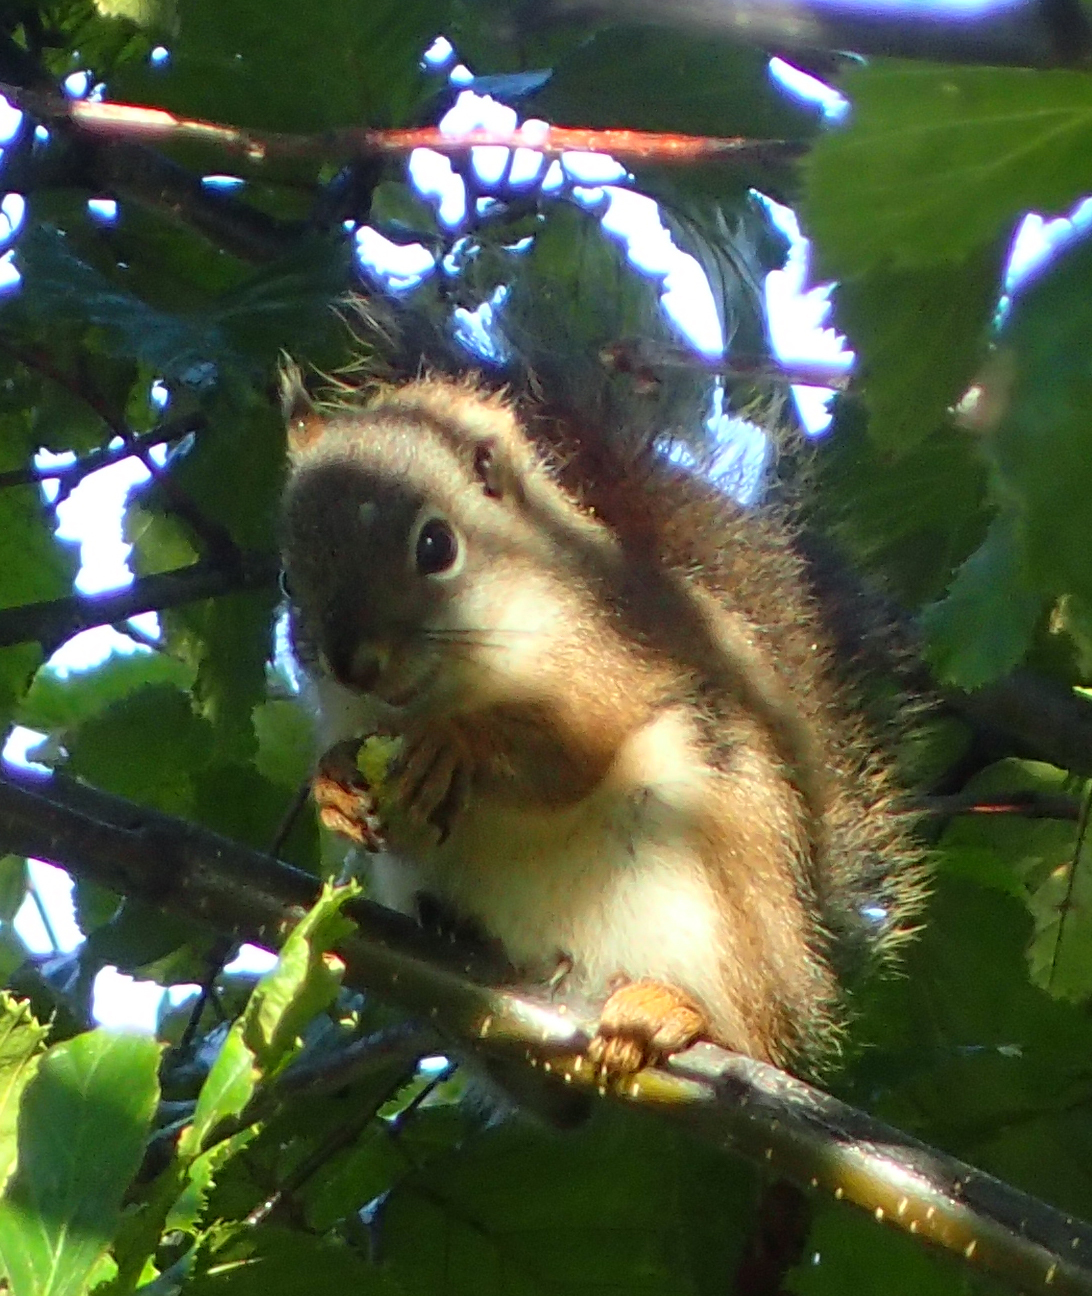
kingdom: Animalia
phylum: Chordata
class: Mammalia
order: Rodentia
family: Sciuridae
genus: Tamiasciurus
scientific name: Tamiasciurus hudsonicus
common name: Red squirrel
